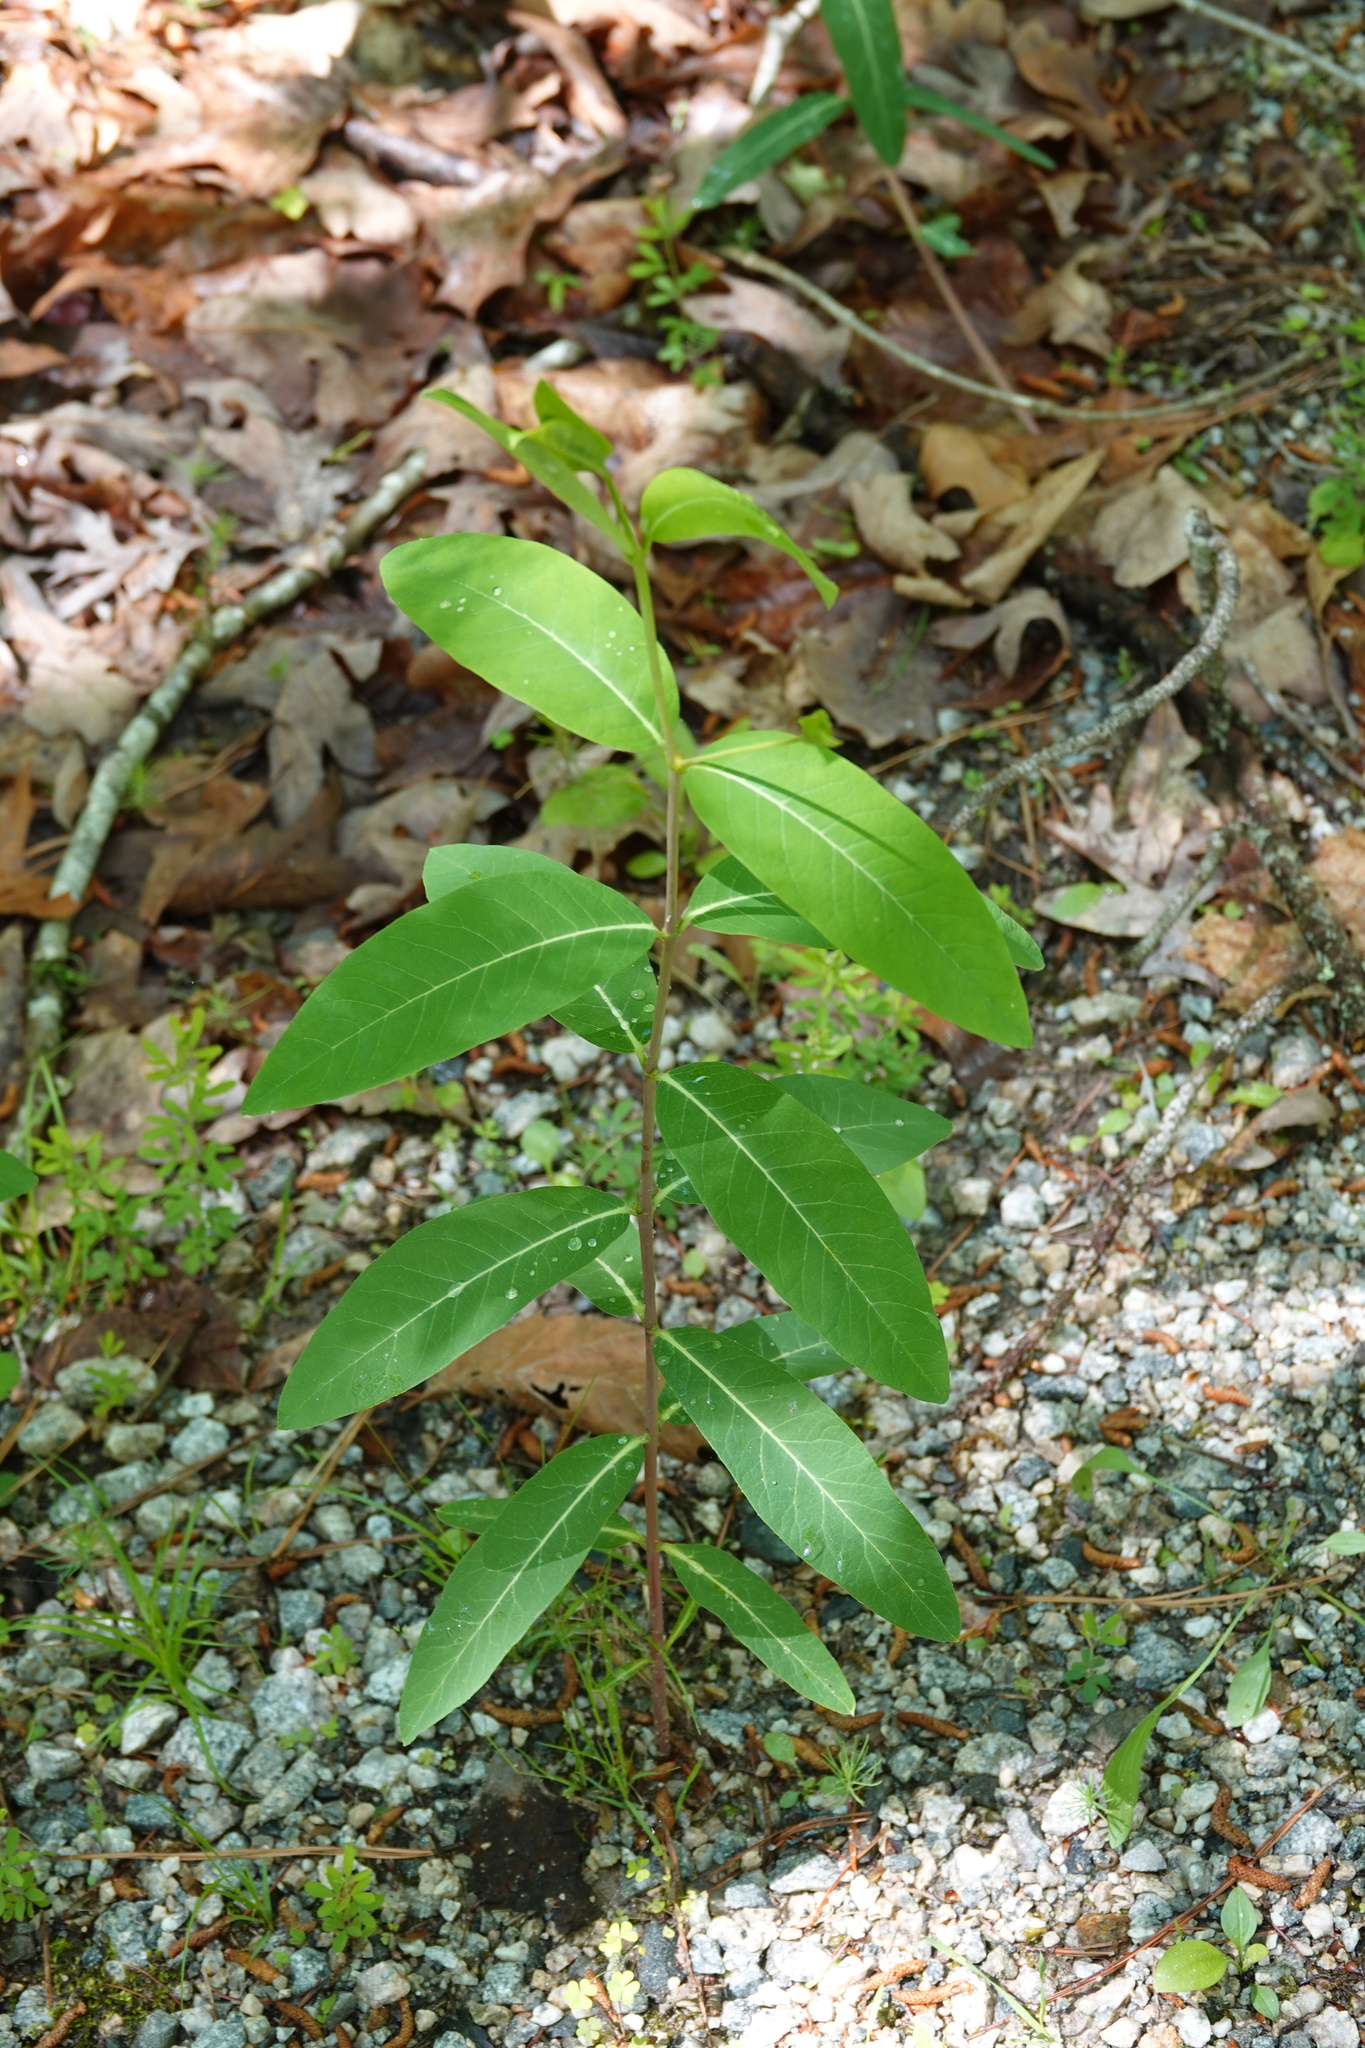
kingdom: Plantae
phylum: Tracheophyta
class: Magnoliopsida
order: Gentianales
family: Apocynaceae
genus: Apocynum
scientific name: Apocynum cannabinum
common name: Hemp dogbane
